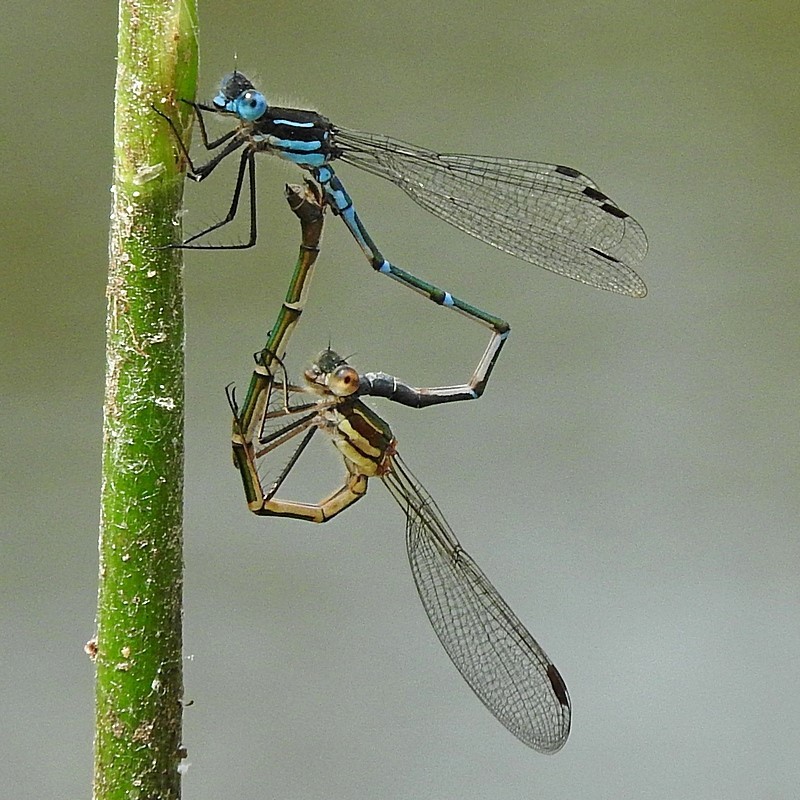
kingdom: Animalia
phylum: Arthropoda
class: Insecta
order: Odonata
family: Lestidae
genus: Austrolestes
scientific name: Austrolestes psyche
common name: Cup ringtail
